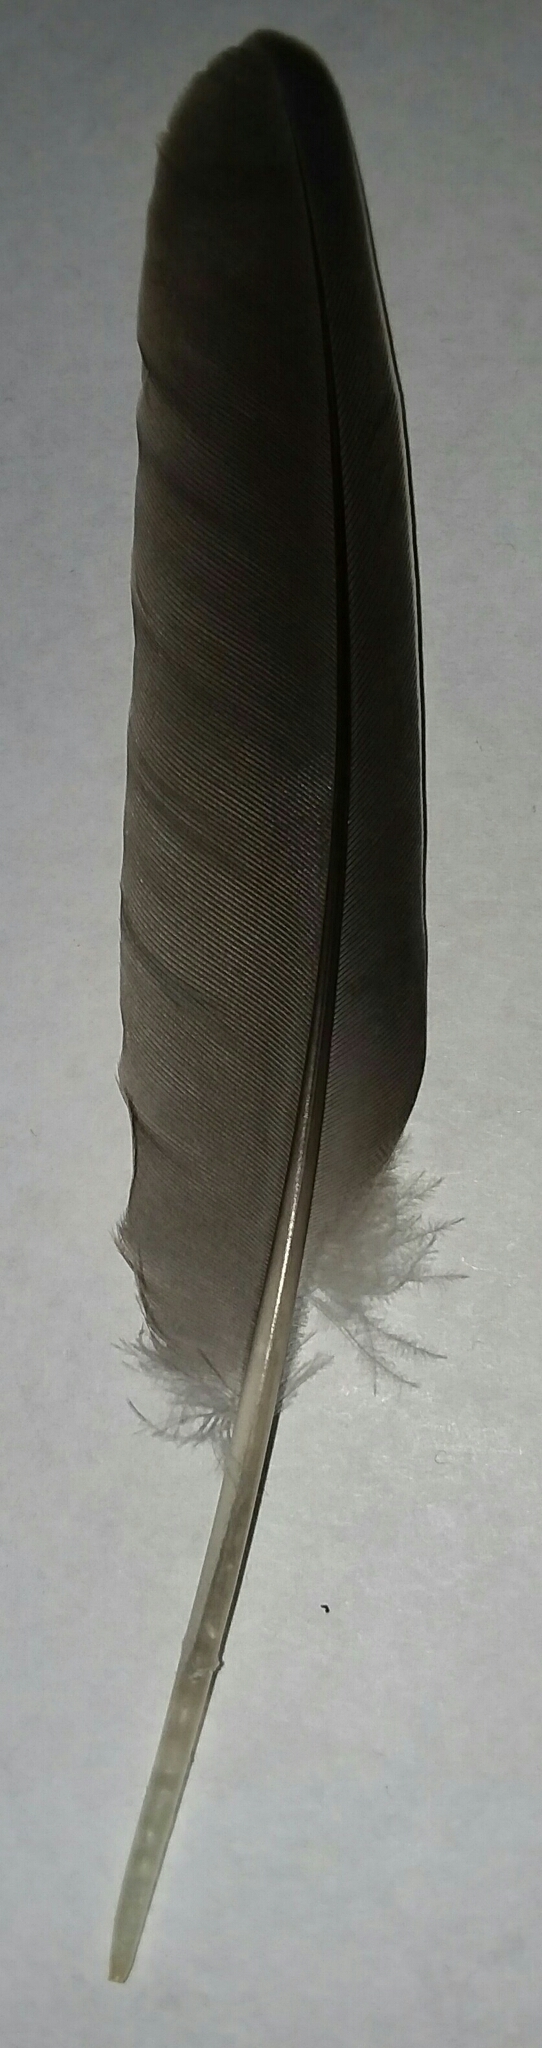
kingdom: Animalia
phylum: Chordata
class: Aves
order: Columbiformes
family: Columbidae
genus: Zenaida
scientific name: Zenaida macroura
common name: Mourning dove
